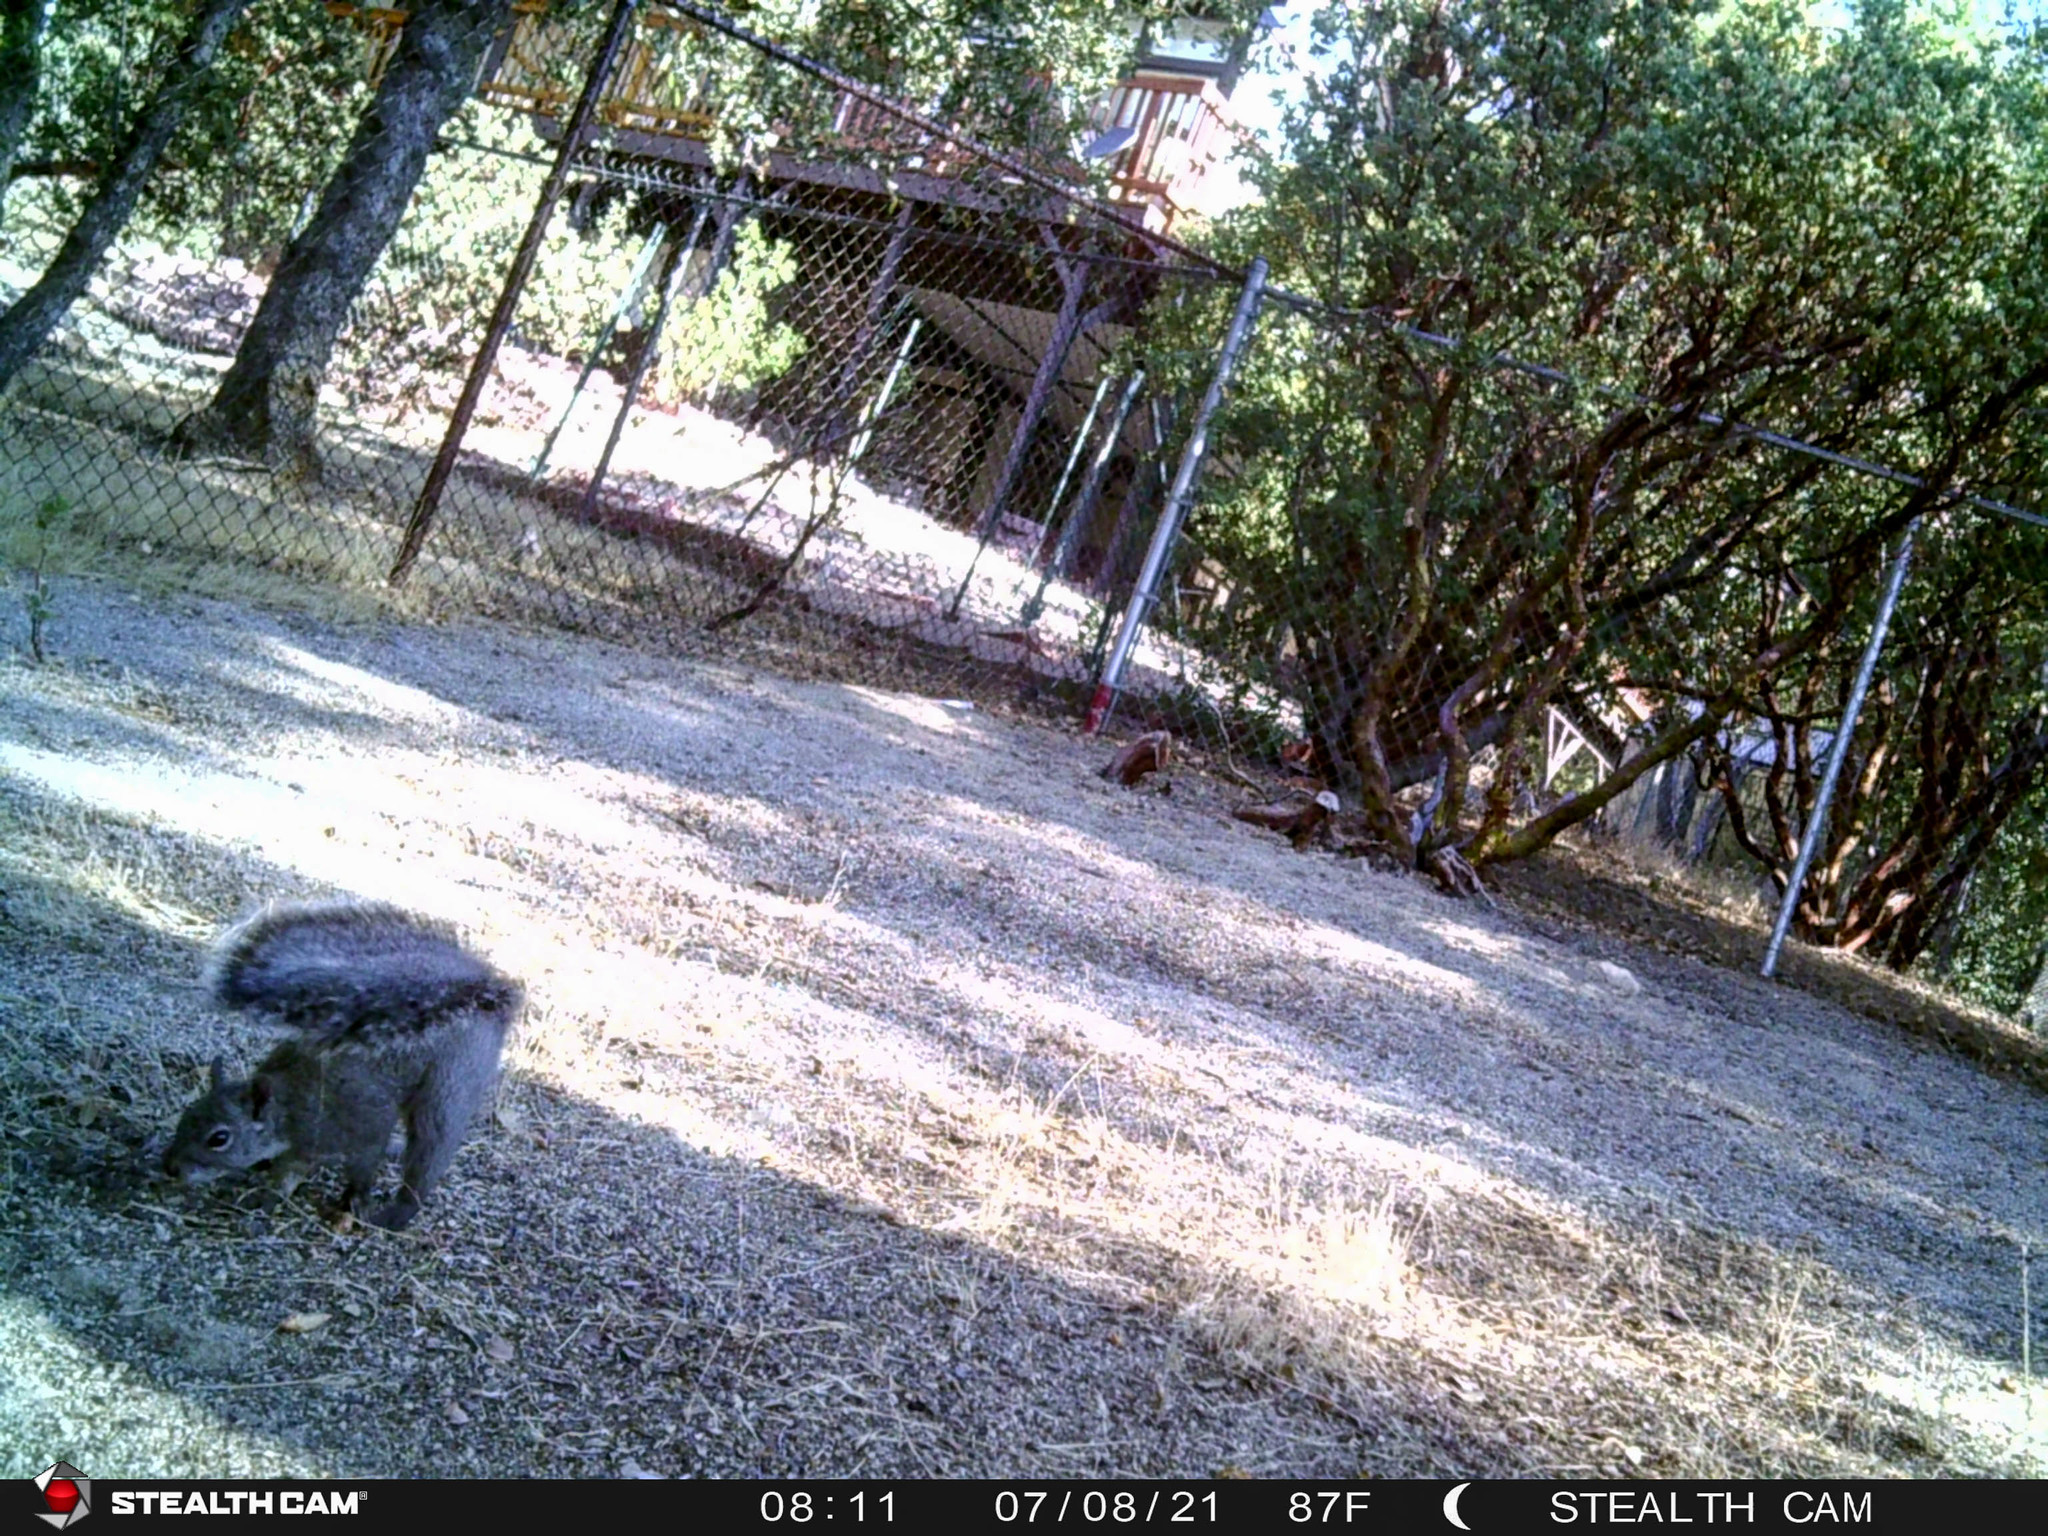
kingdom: Animalia
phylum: Chordata
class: Mammalia
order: Rodentia
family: Sciuridae
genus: Sciurus
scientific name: Sciurus griseus
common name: Western gray squirrel
